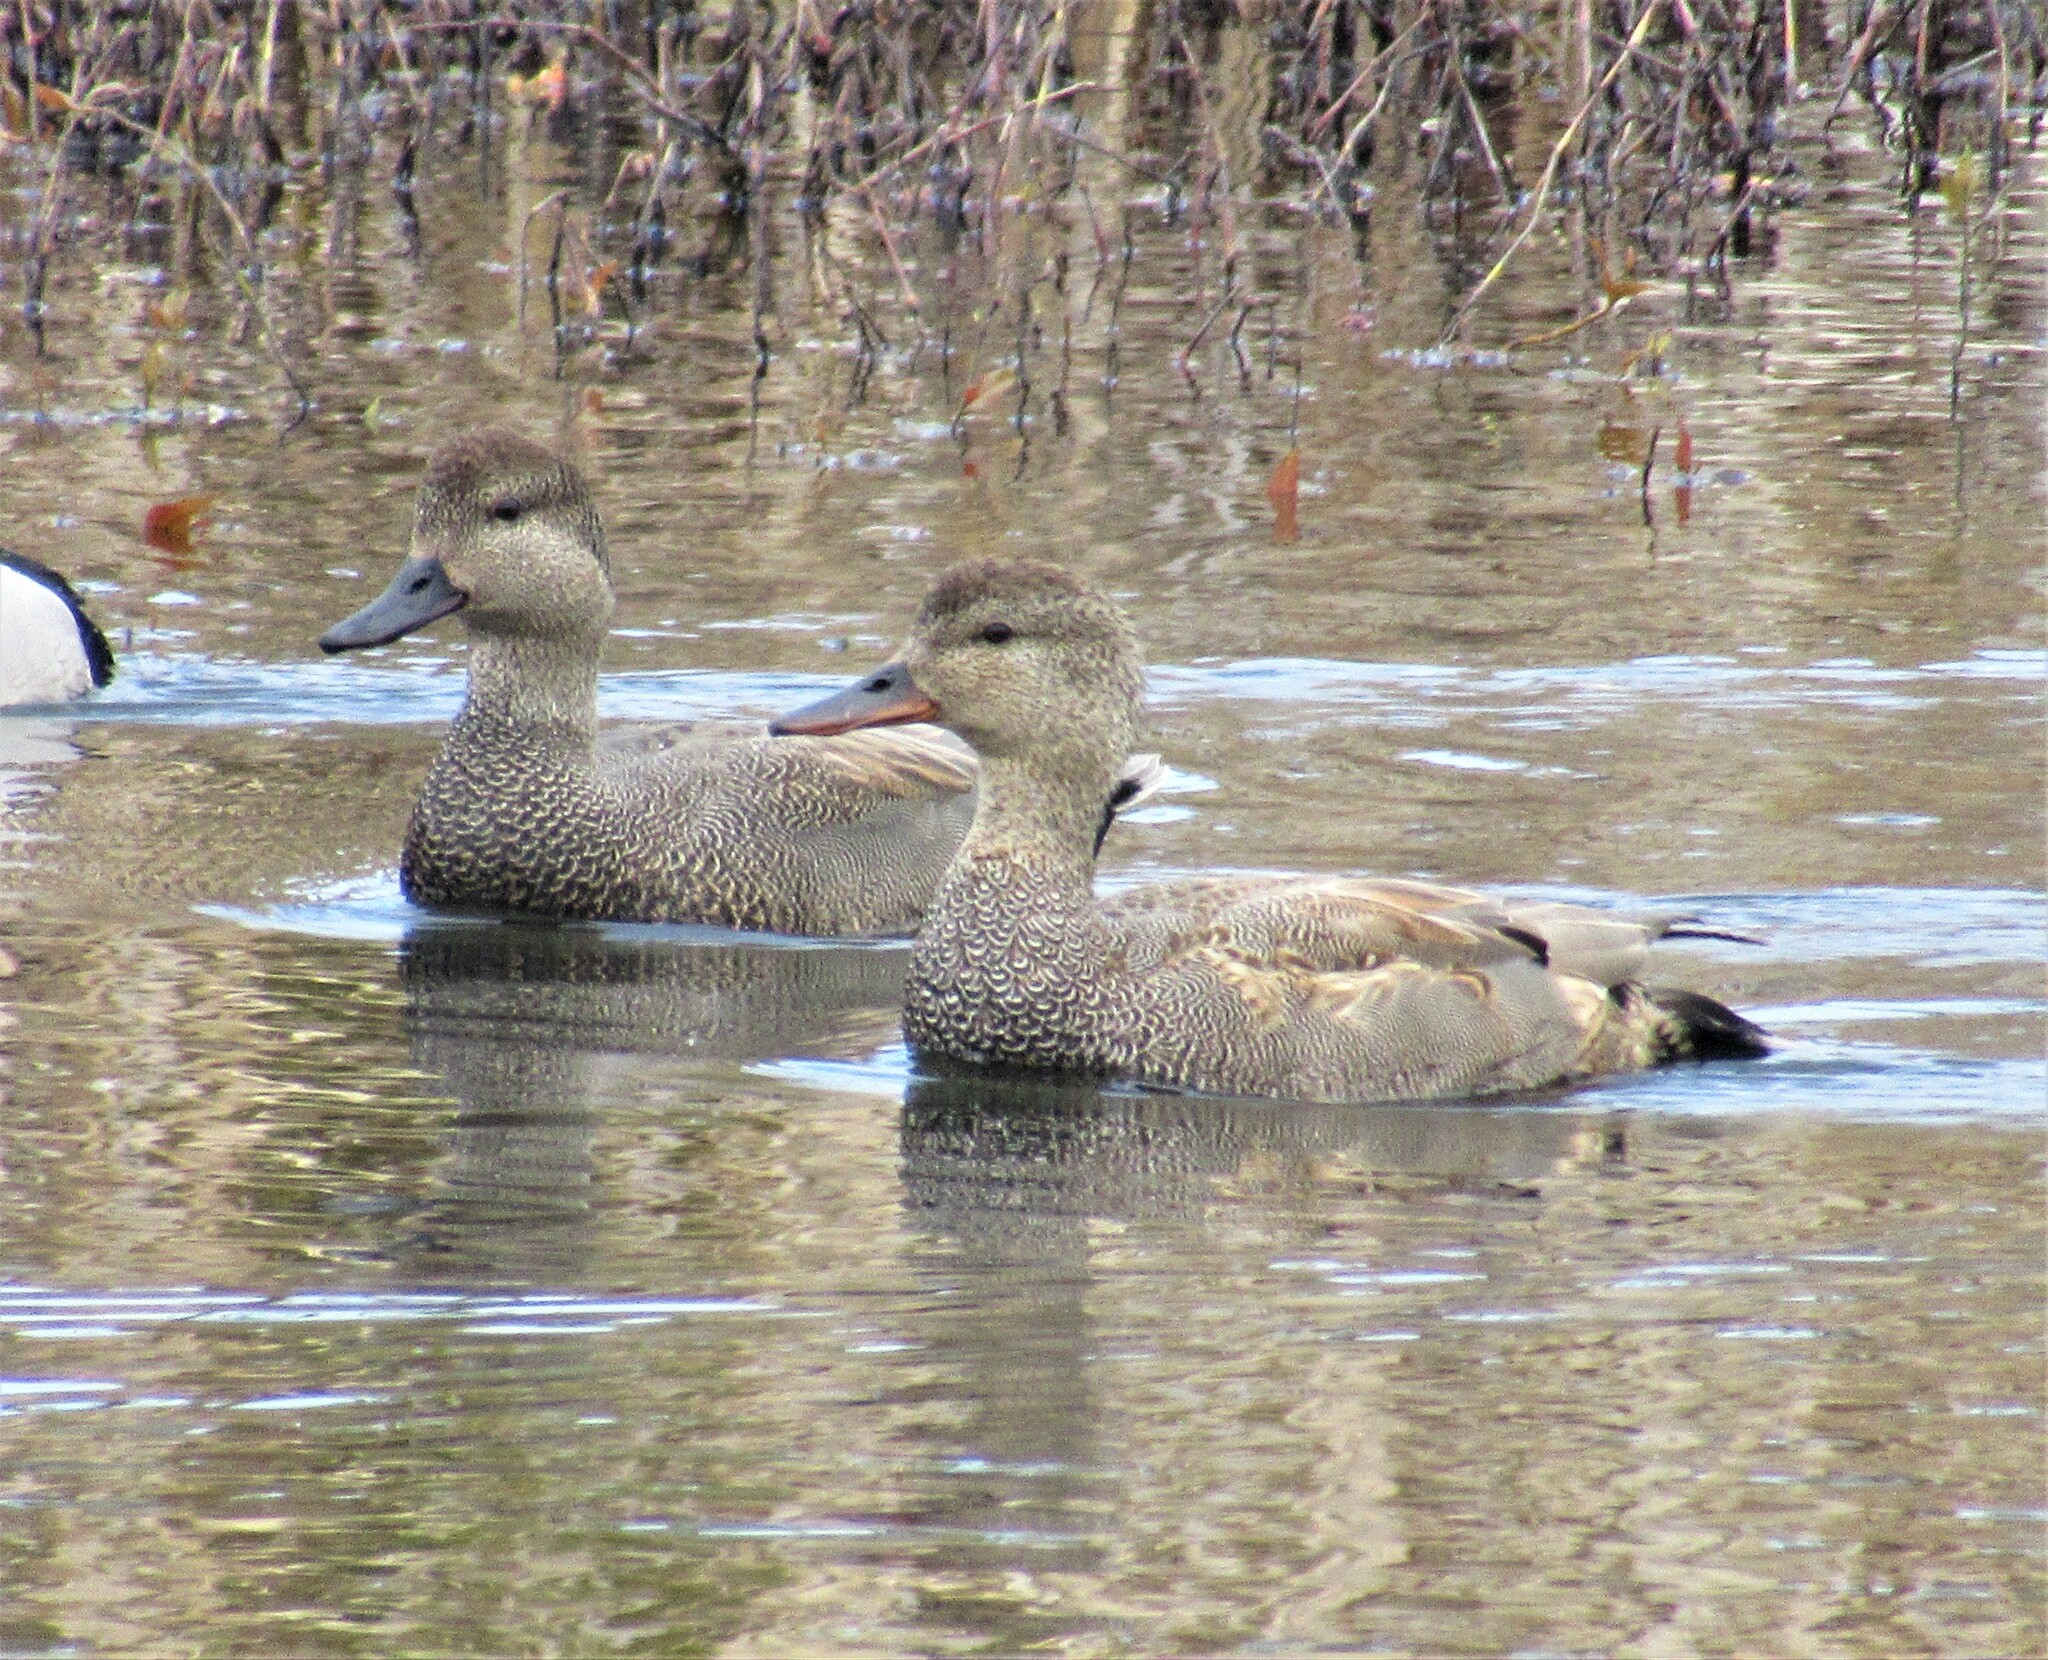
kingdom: Animalia
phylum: Chordata
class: Aves
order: Anseriformes
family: Anatidae
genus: Mareca
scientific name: Mareca strepera
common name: Gadwall
